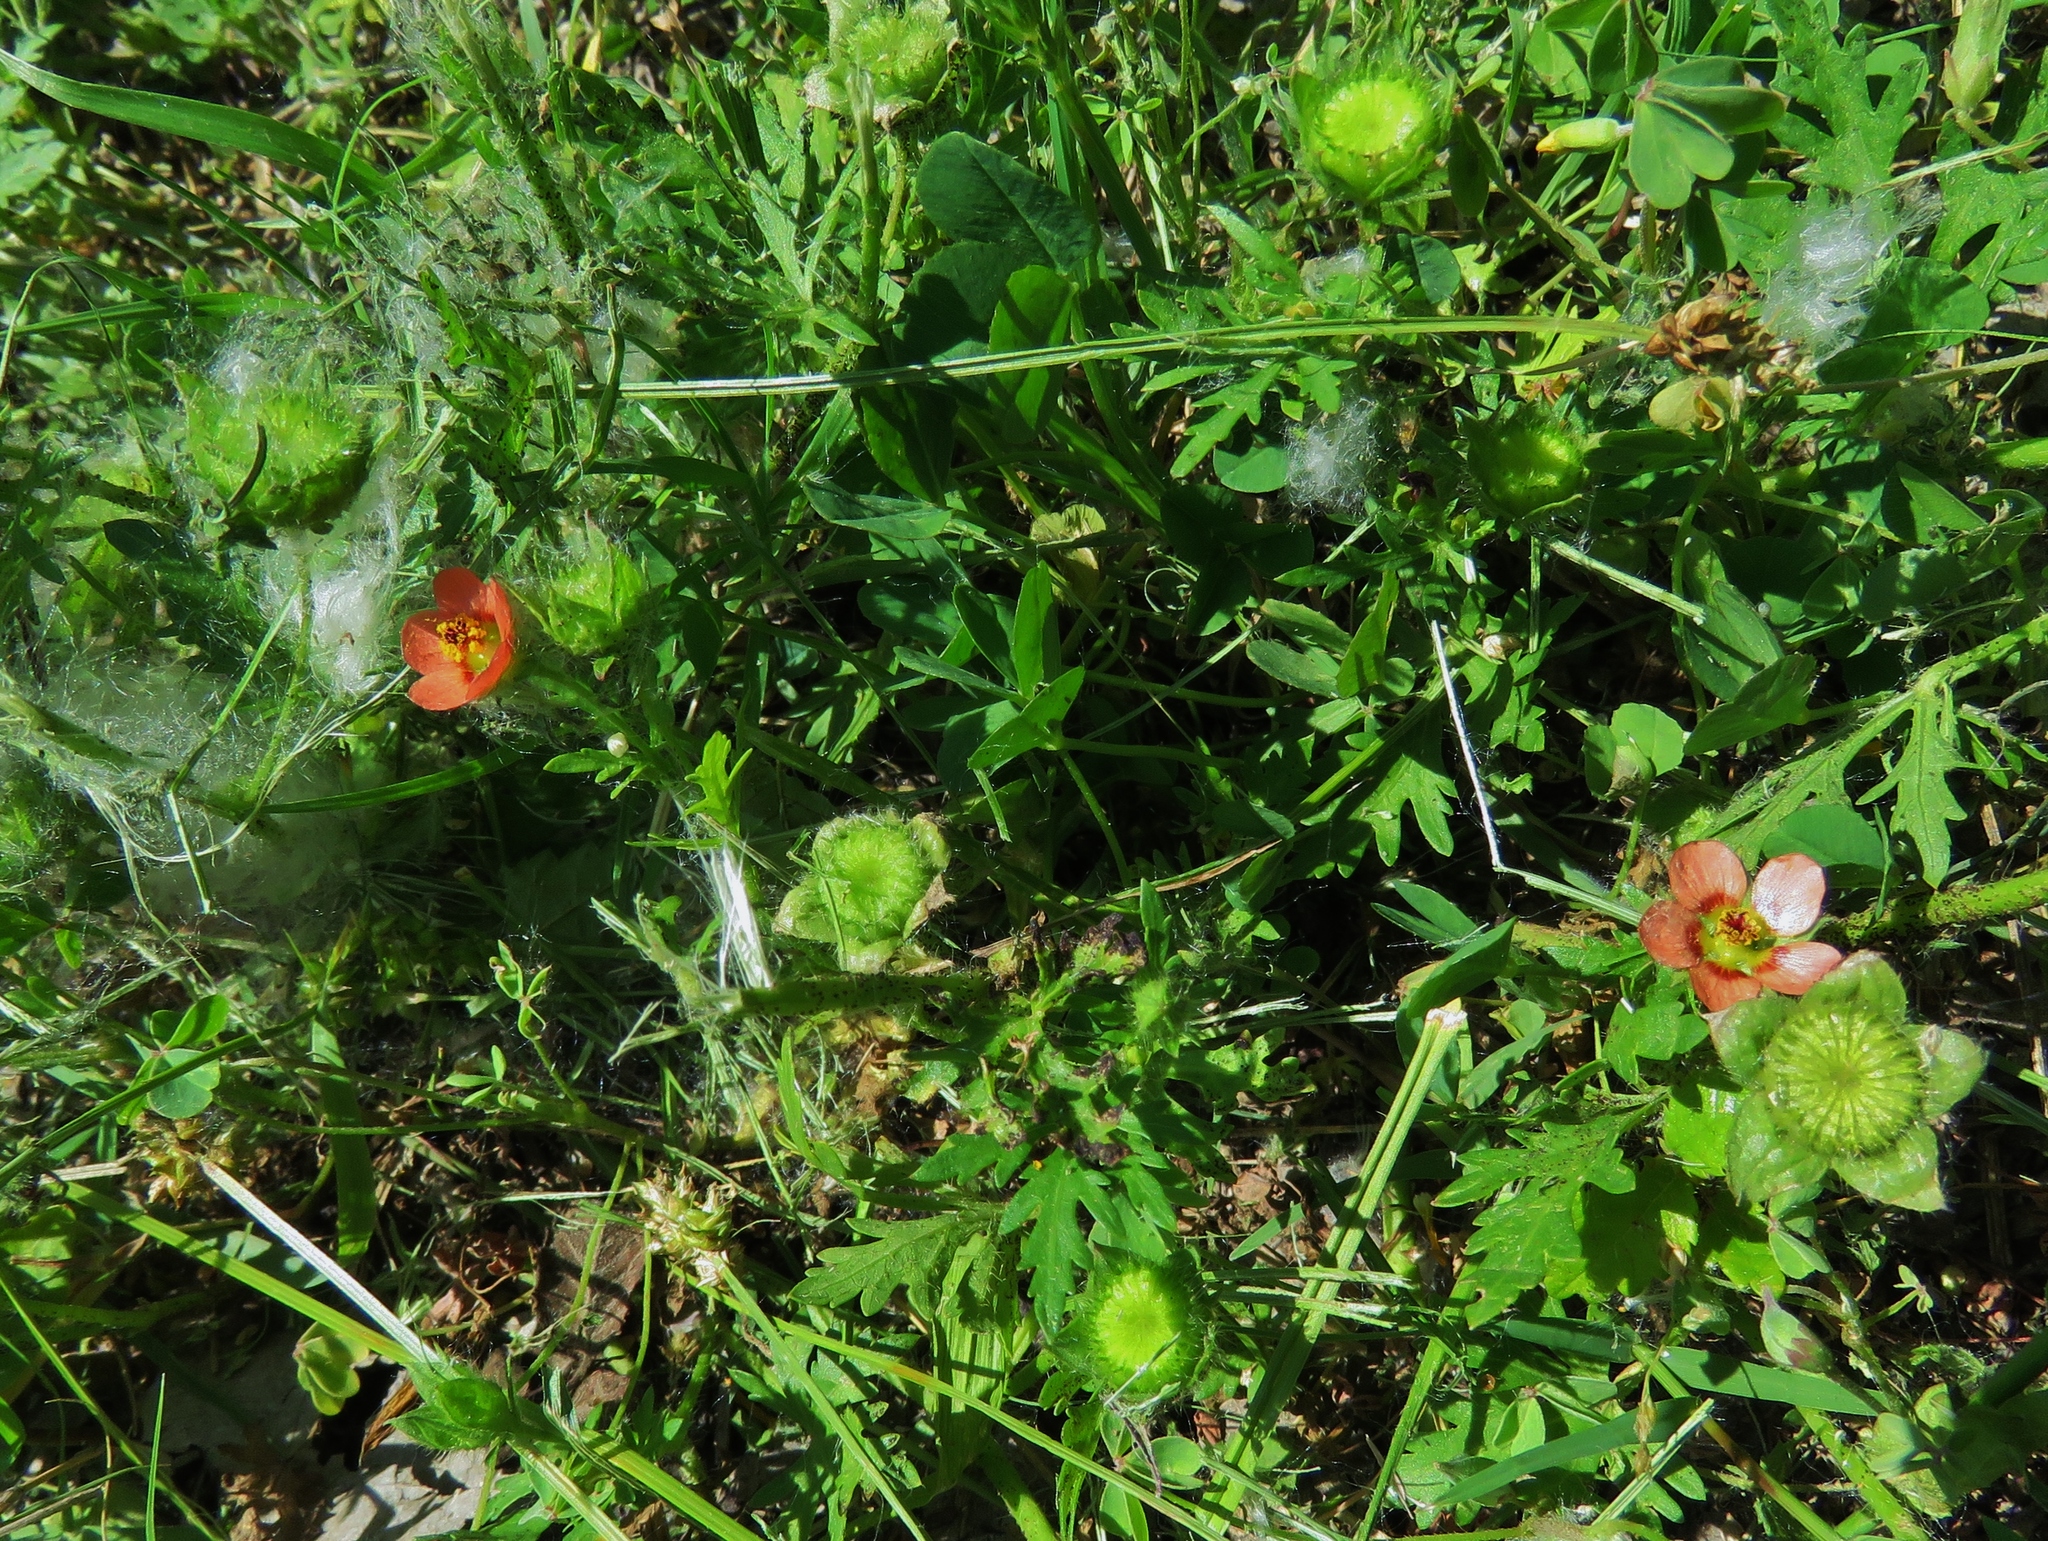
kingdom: Plantae
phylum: Tracheophyta
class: Magnoliopsida
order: Malvales
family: Malvaceae
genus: Modiola
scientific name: Modiola caroliniana
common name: Carolina bristlemallow
